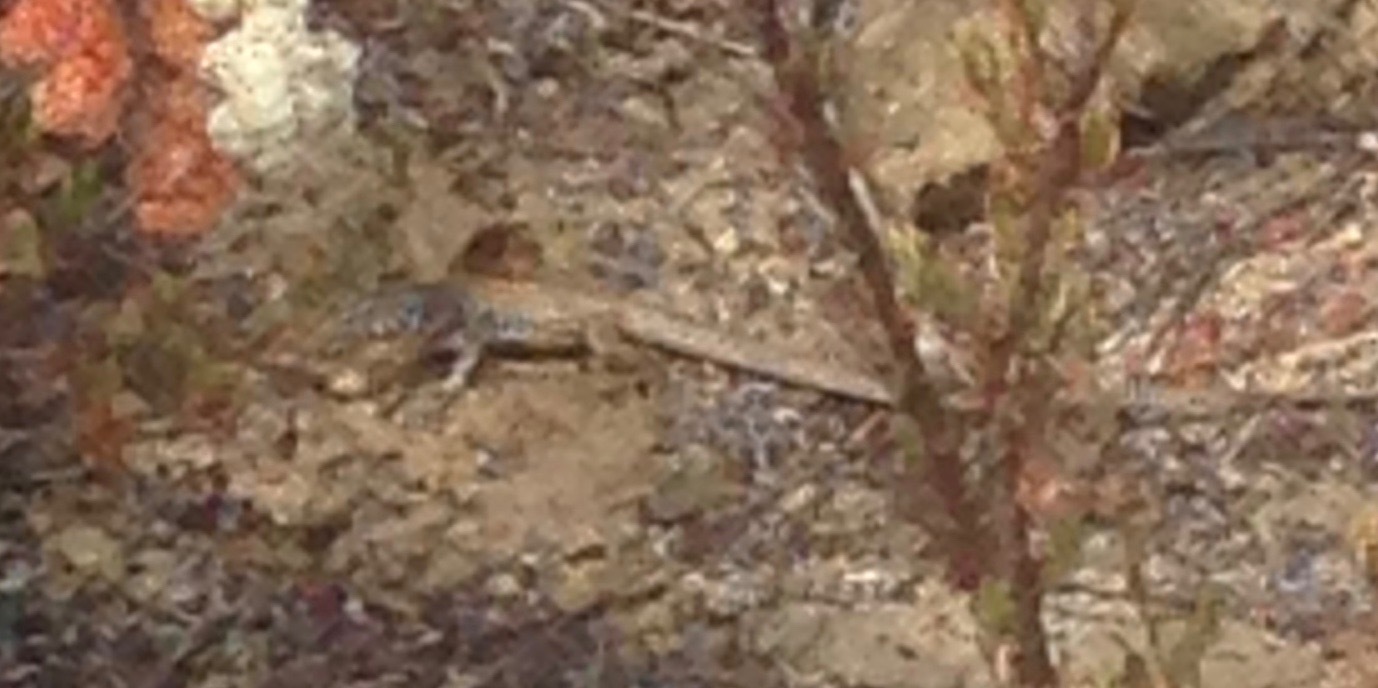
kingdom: Animalia
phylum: Chordata
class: Squamata
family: Teiidae
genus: Aspidoscelis
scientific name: Aspidoscelis tigris
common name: Tiger whiptail
